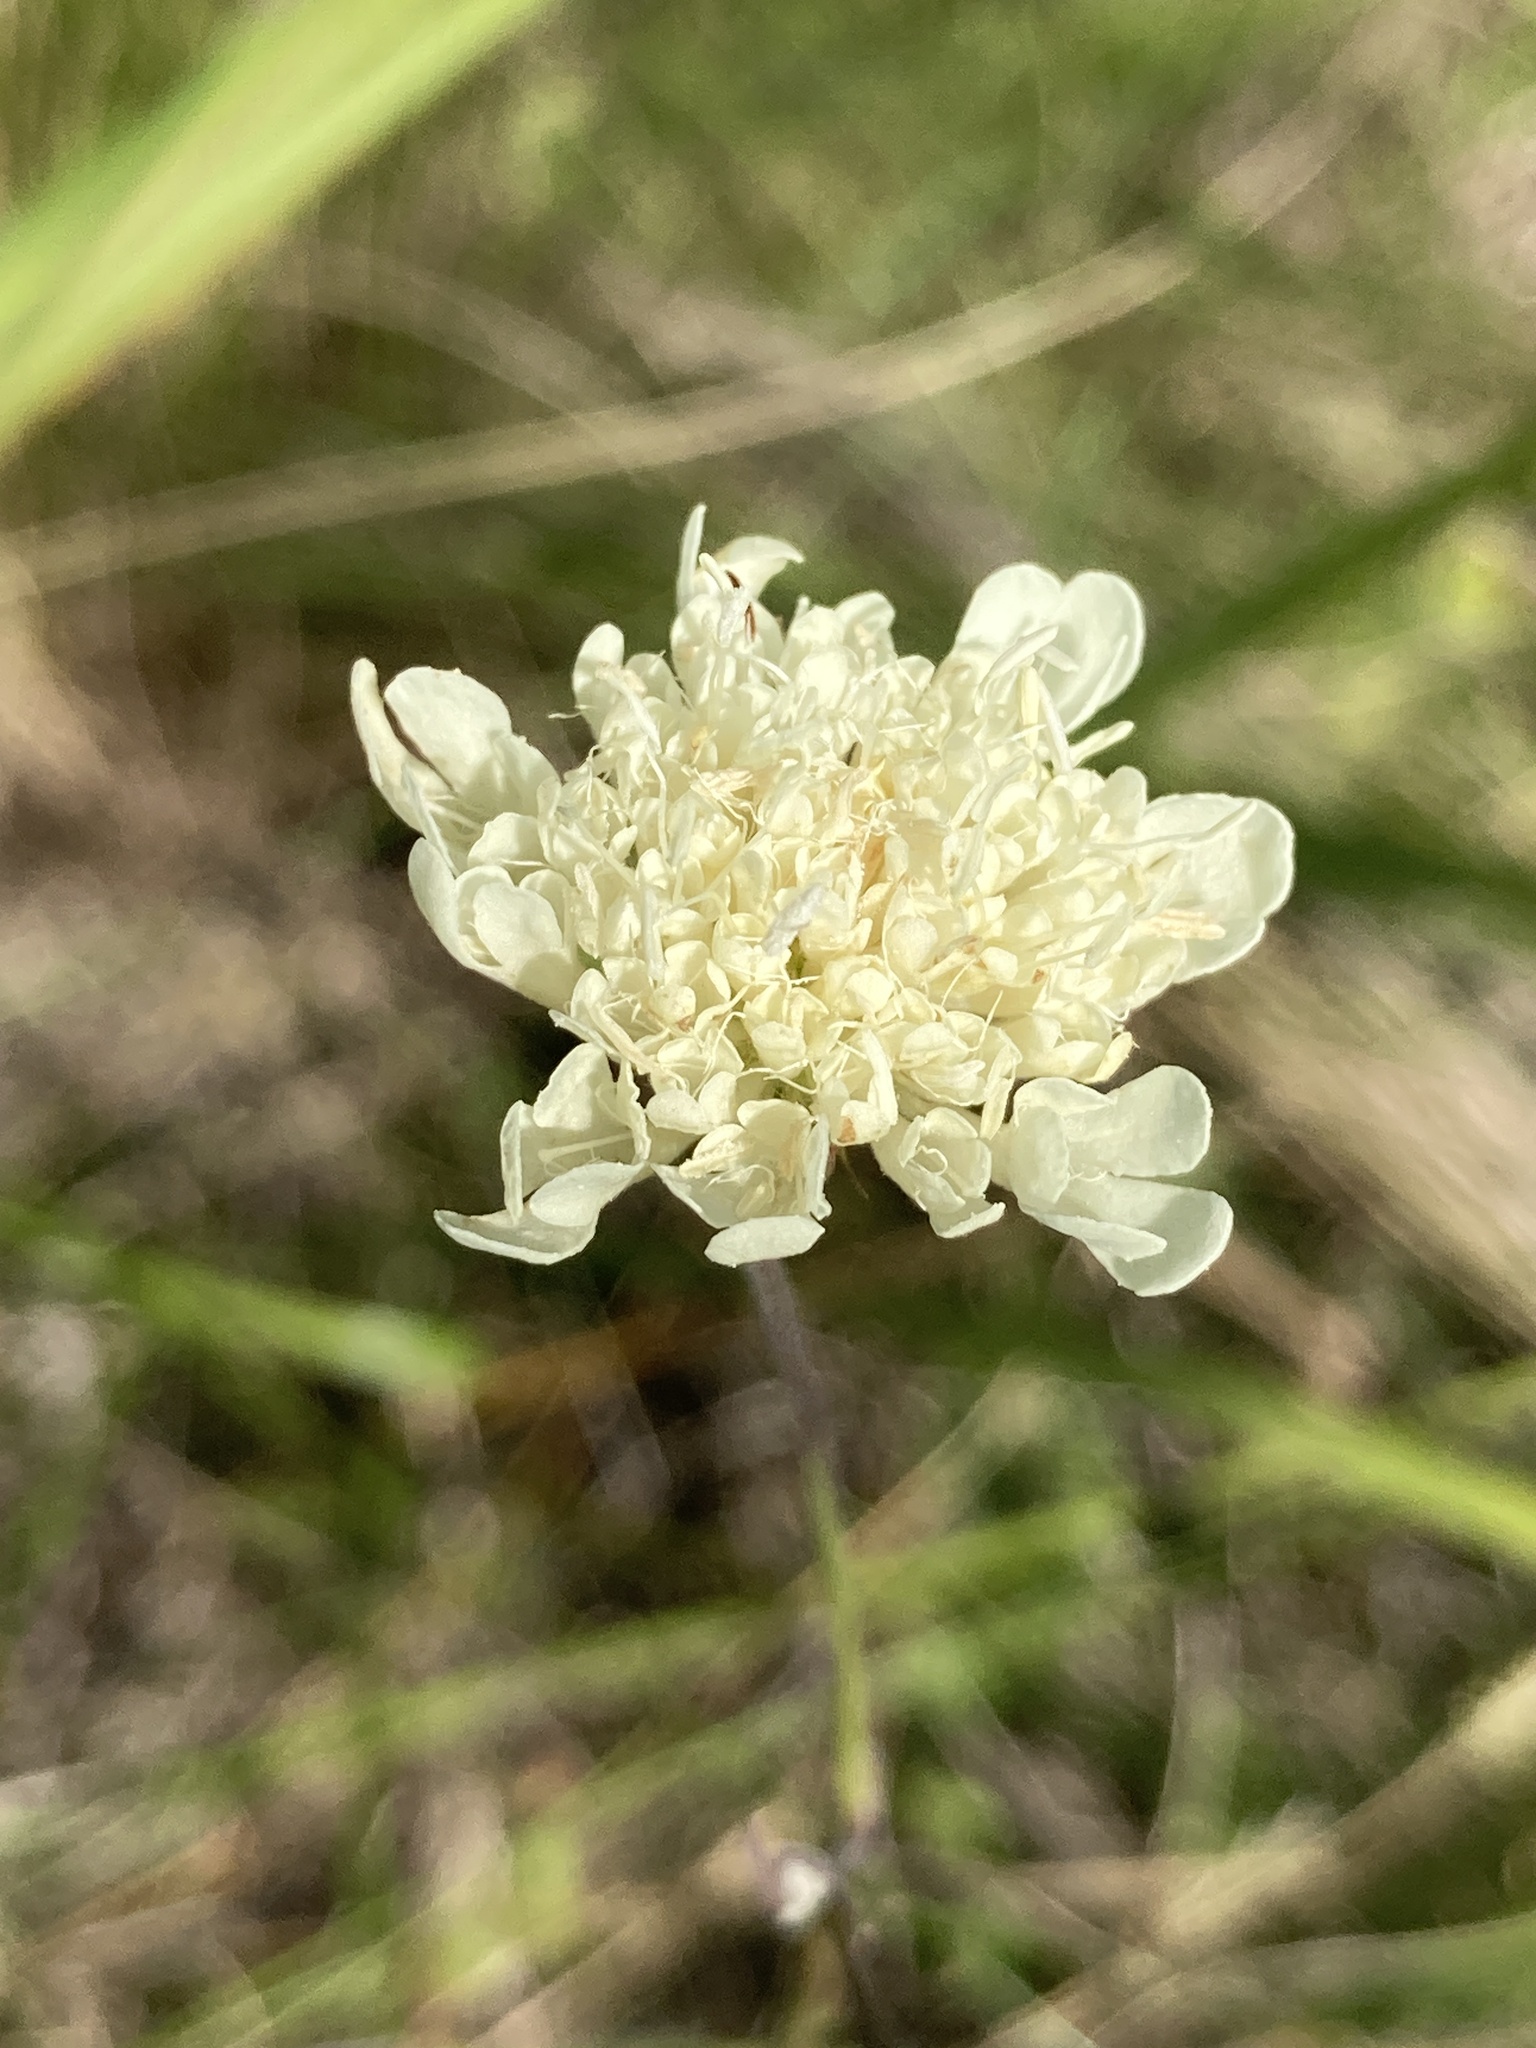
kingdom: Plantae
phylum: Tracheophyta
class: Magnoliopsida
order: Dipsacales
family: Caprifoliaceae
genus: Scabiosa
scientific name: Scabiosa ochroleuca
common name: Cream pincushions
